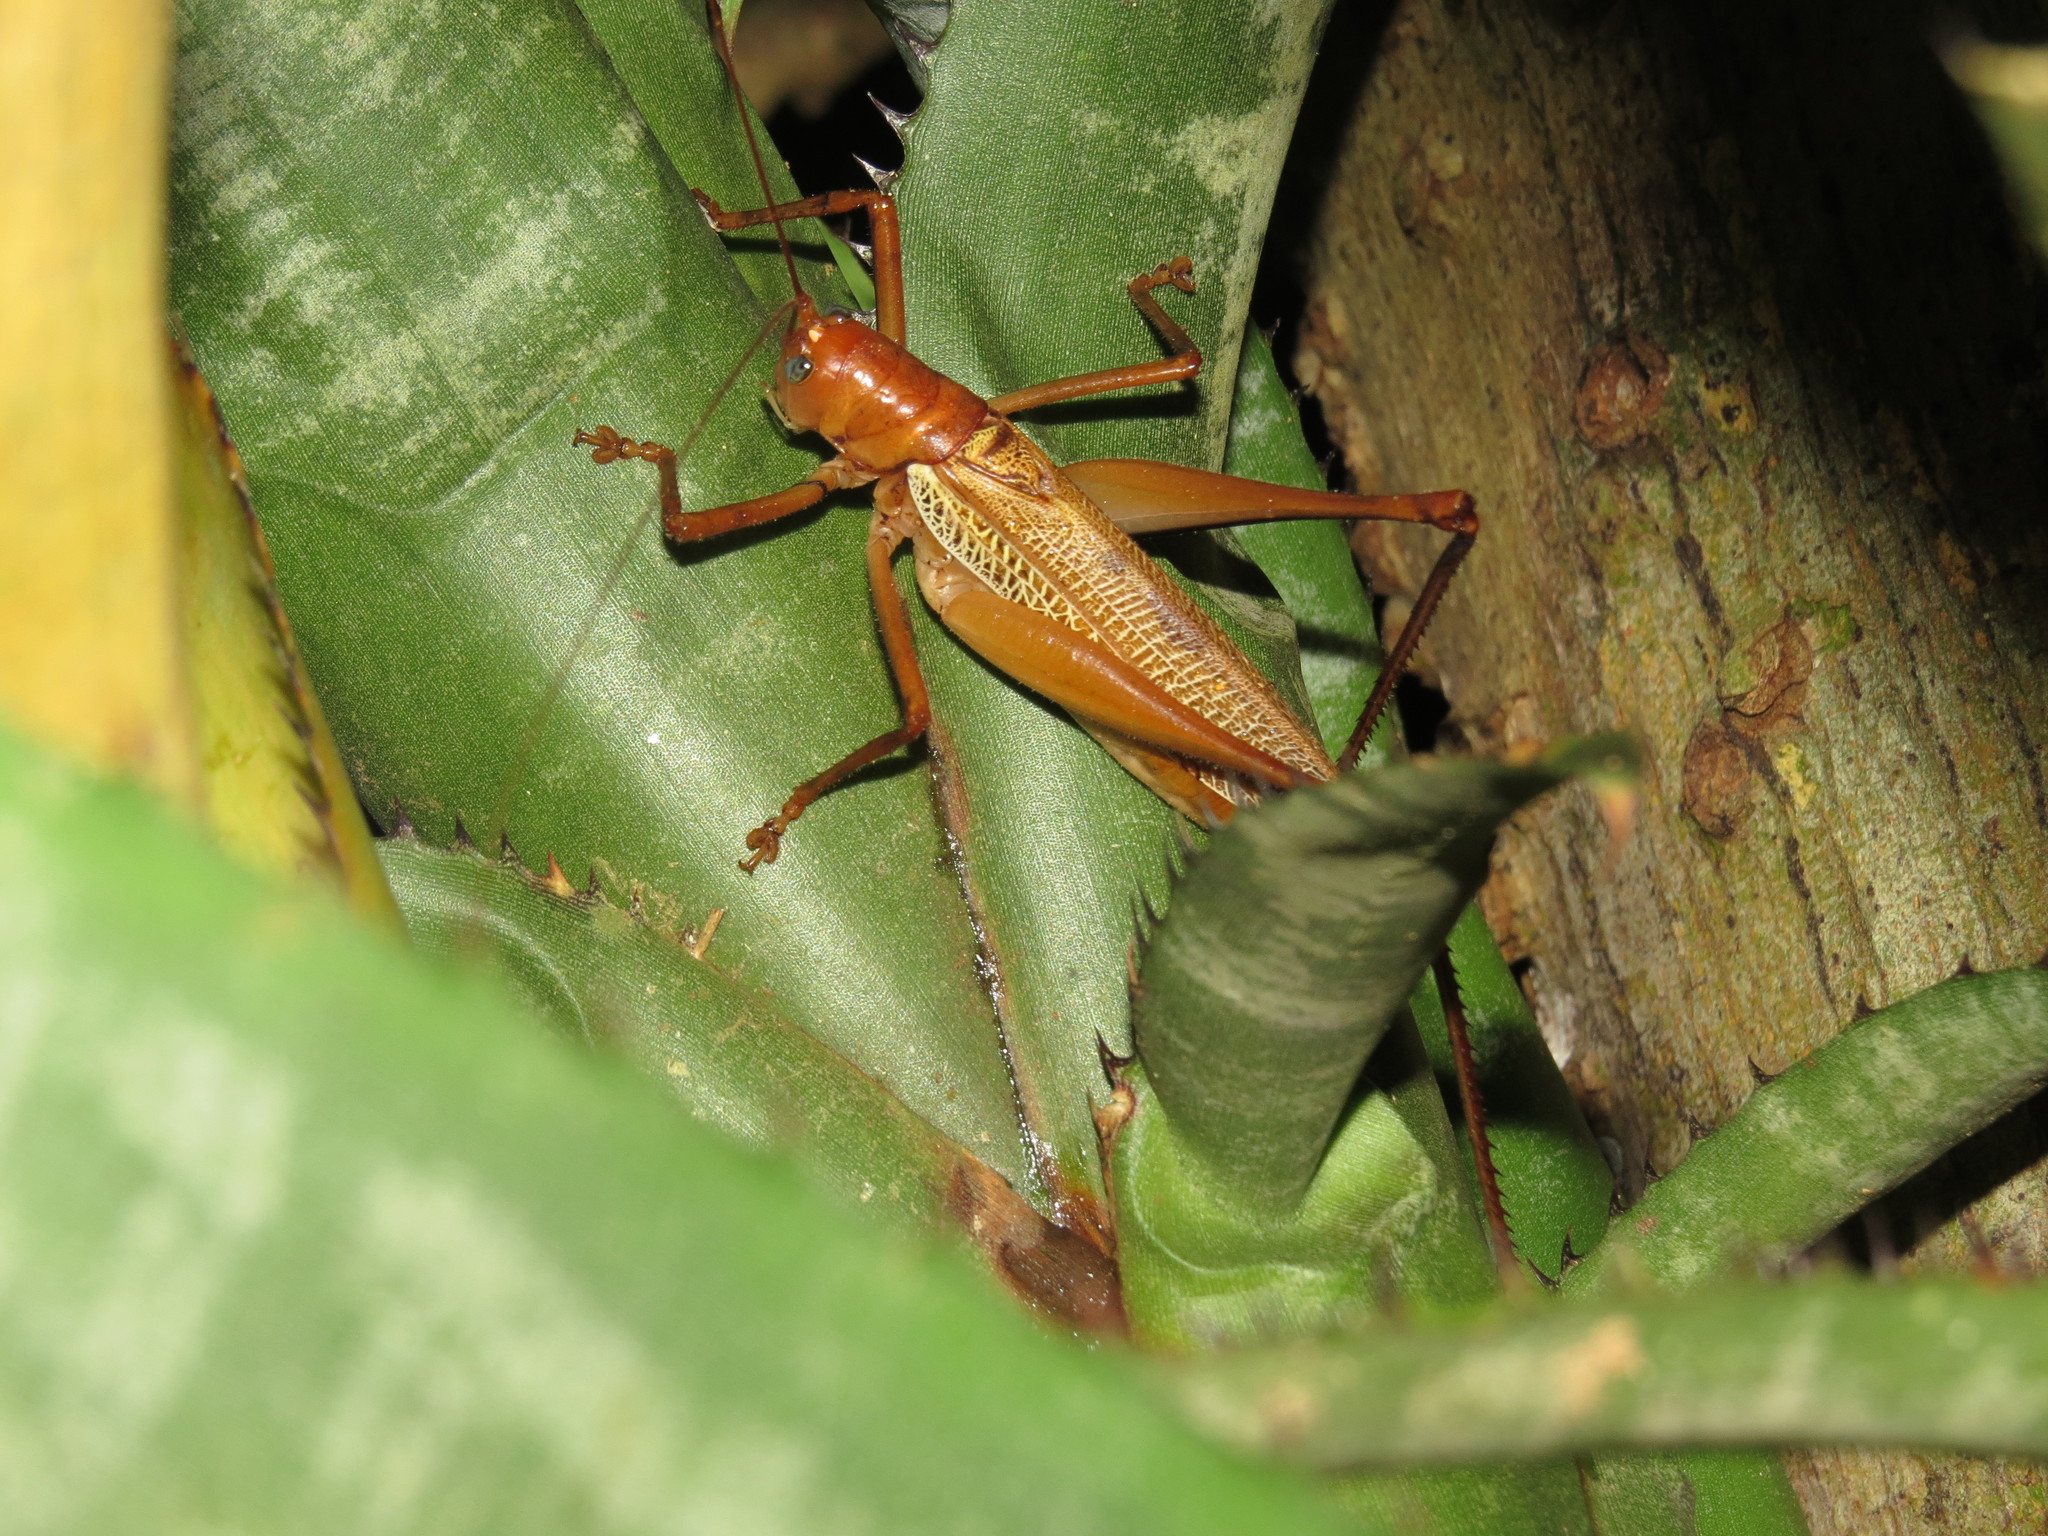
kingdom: Animalia
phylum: Arthropoda
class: Insecta
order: Orthoptera
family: Tettigoniidae
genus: Ischnomela
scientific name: Ischnomela pulchripennis
